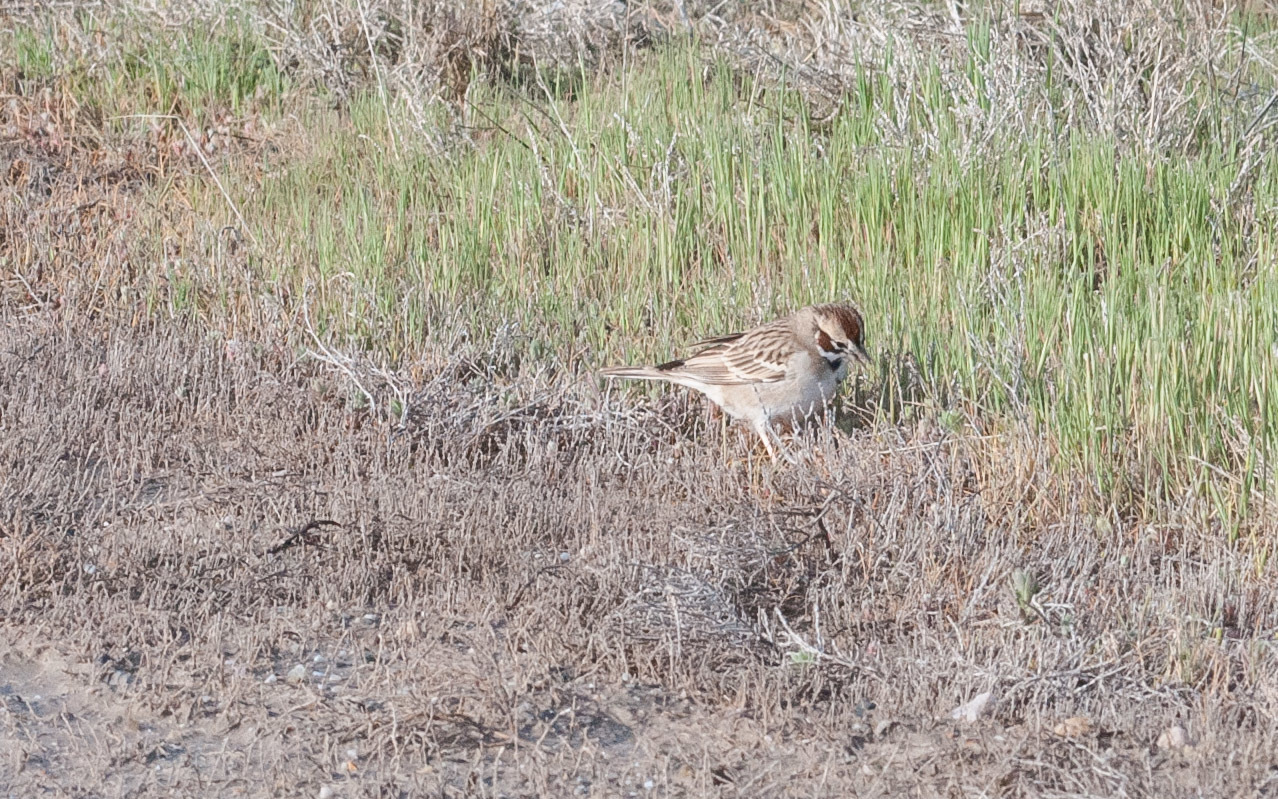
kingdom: Animalia
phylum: Chordata
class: Aves
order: Passeriformes
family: Passerellidae
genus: Chondestes
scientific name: Chondestes grammacus
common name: Lark sparrow
